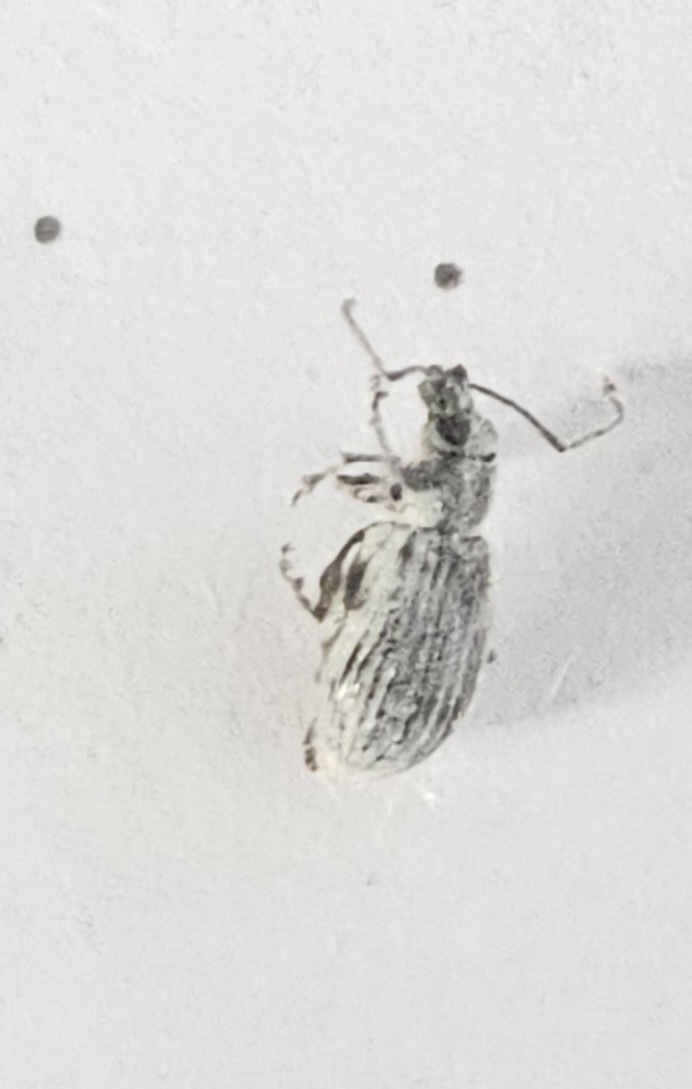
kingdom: Animalia
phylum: Arthropoda
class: Insecta
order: Coleoptera
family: Curculionidae
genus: Cyrtepistomus
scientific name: Cyrtepistomus castaneus
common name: Weevil
